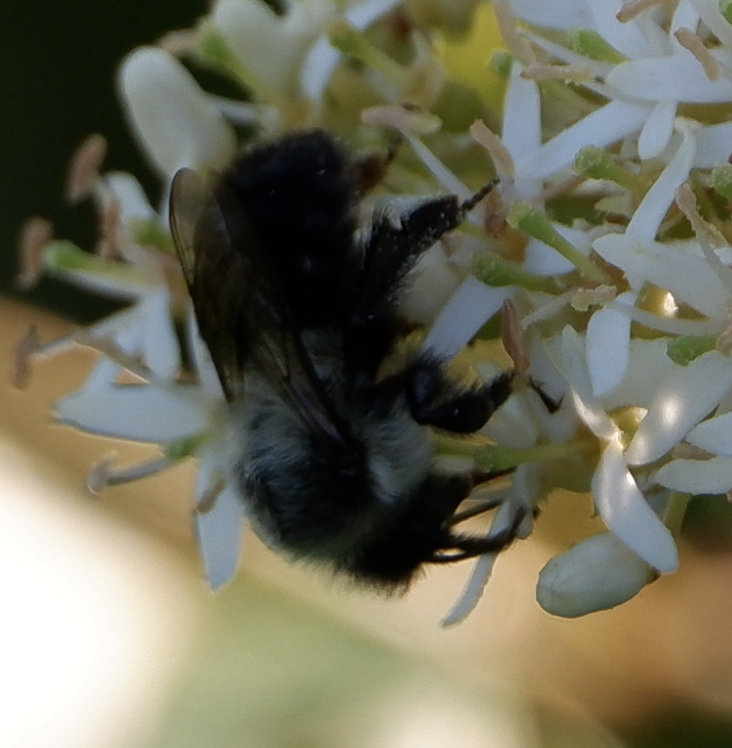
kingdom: Animalia
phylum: Arthropoda
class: Insecta
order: Hymenoptera
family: Apidae
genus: Bombus
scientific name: Bombus impatiens
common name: Common eastern bumble bee
